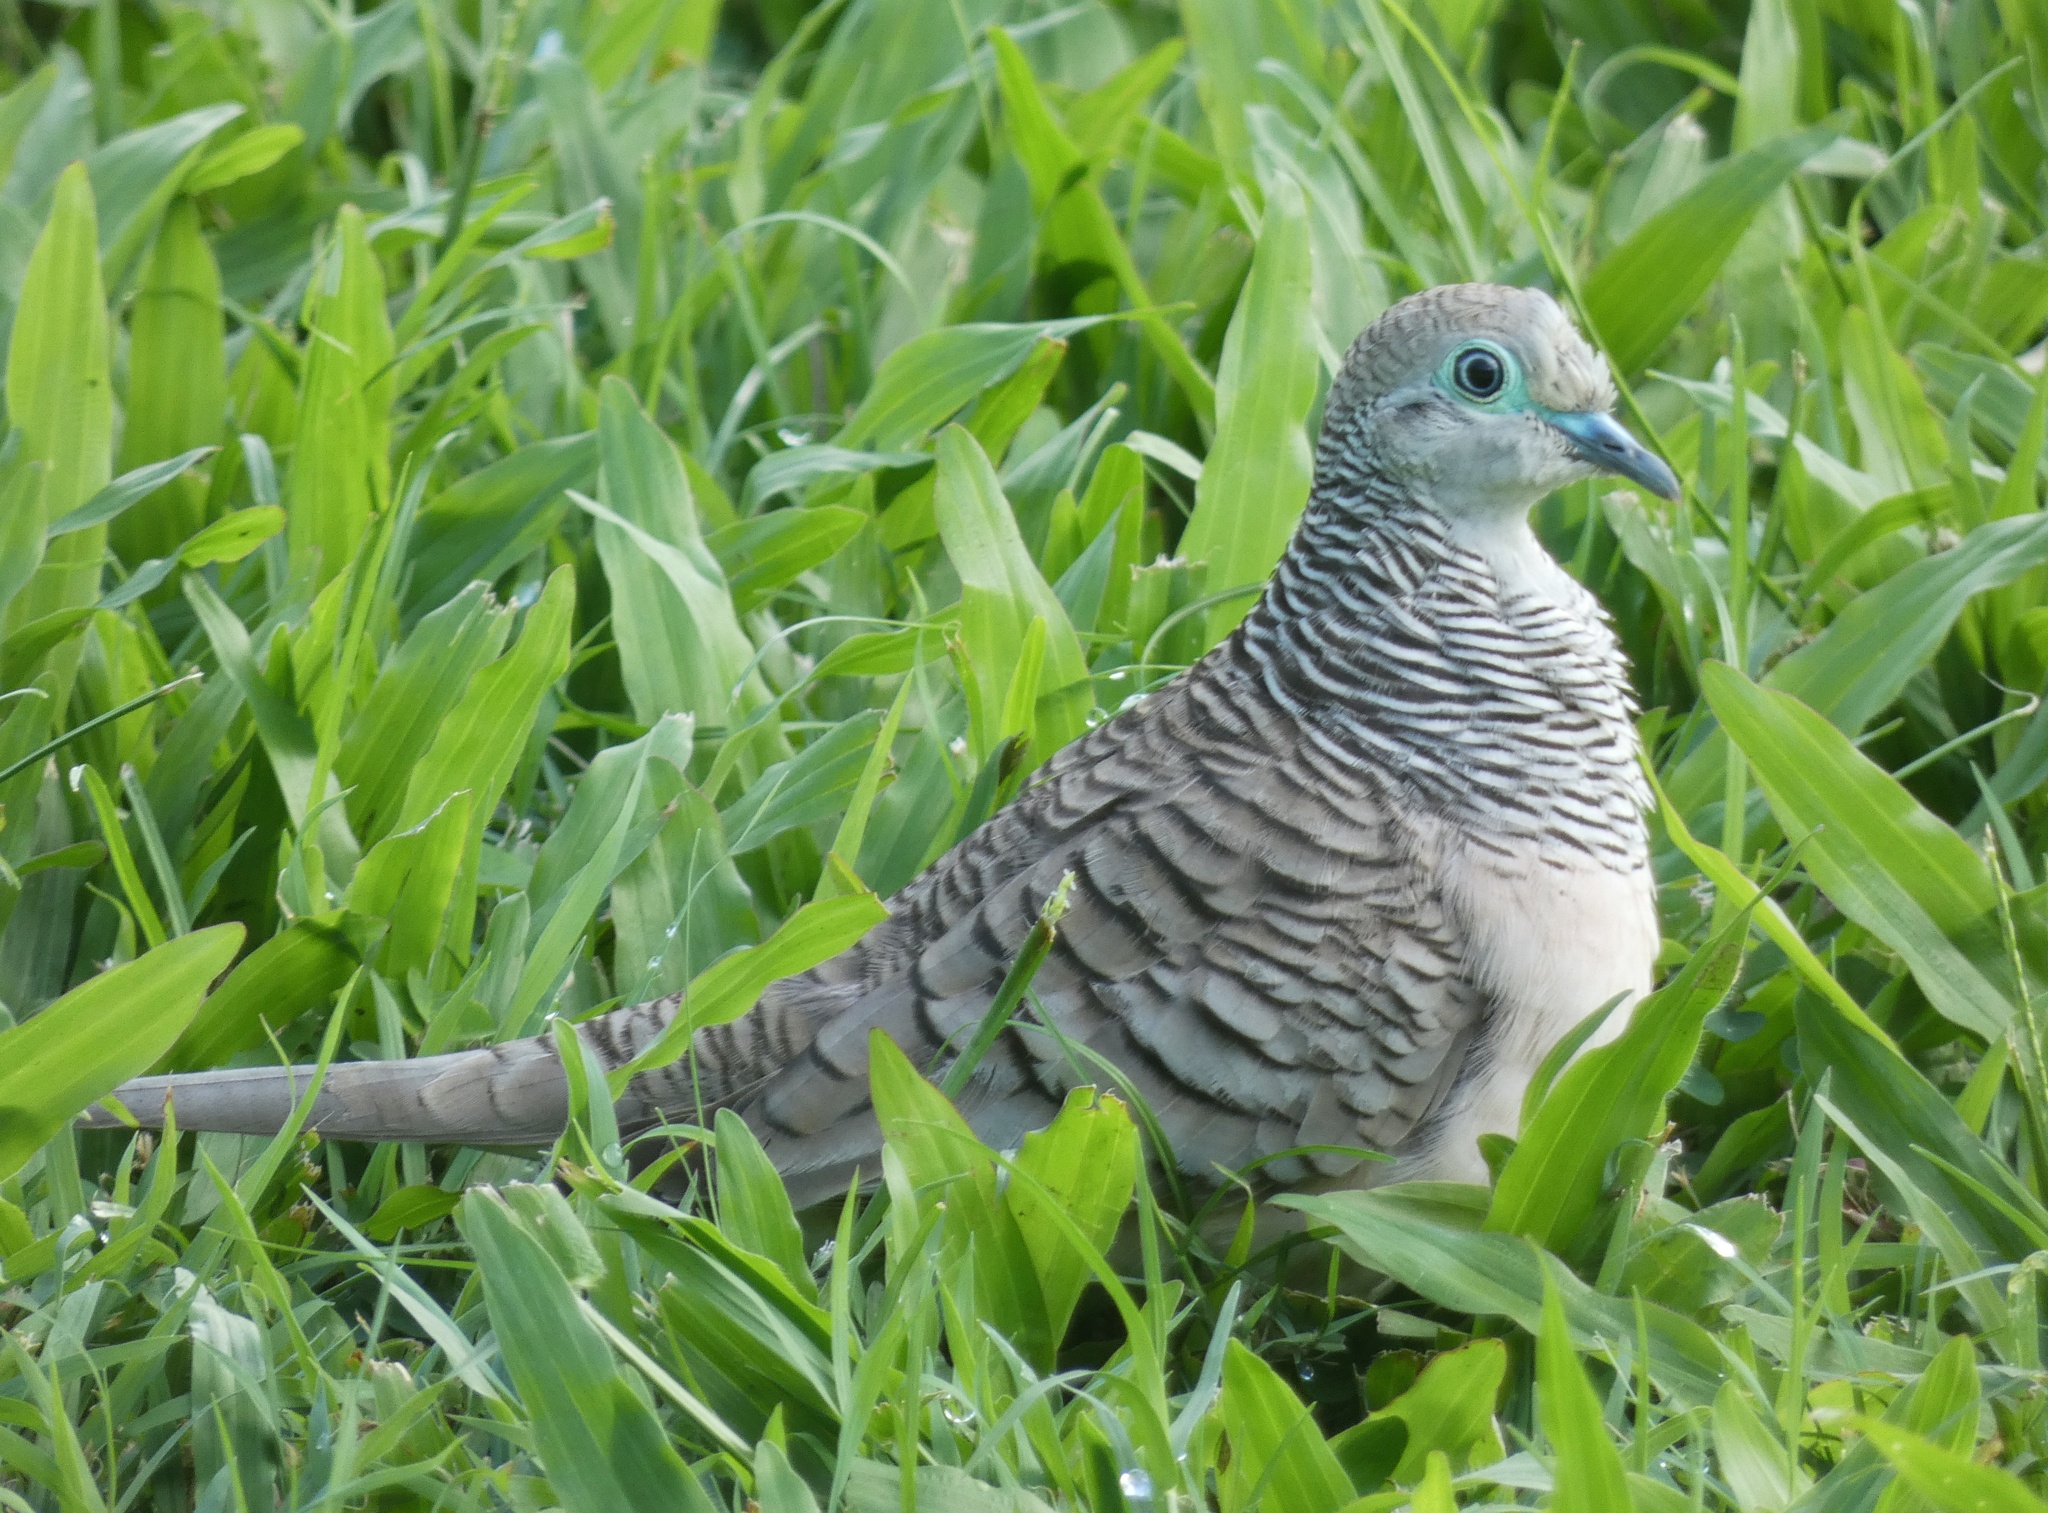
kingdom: Animalia
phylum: Chordata
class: Aves
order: Columbiformes
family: Columbidae
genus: Geopelia
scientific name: Geopelia placida
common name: Peaceful dove
